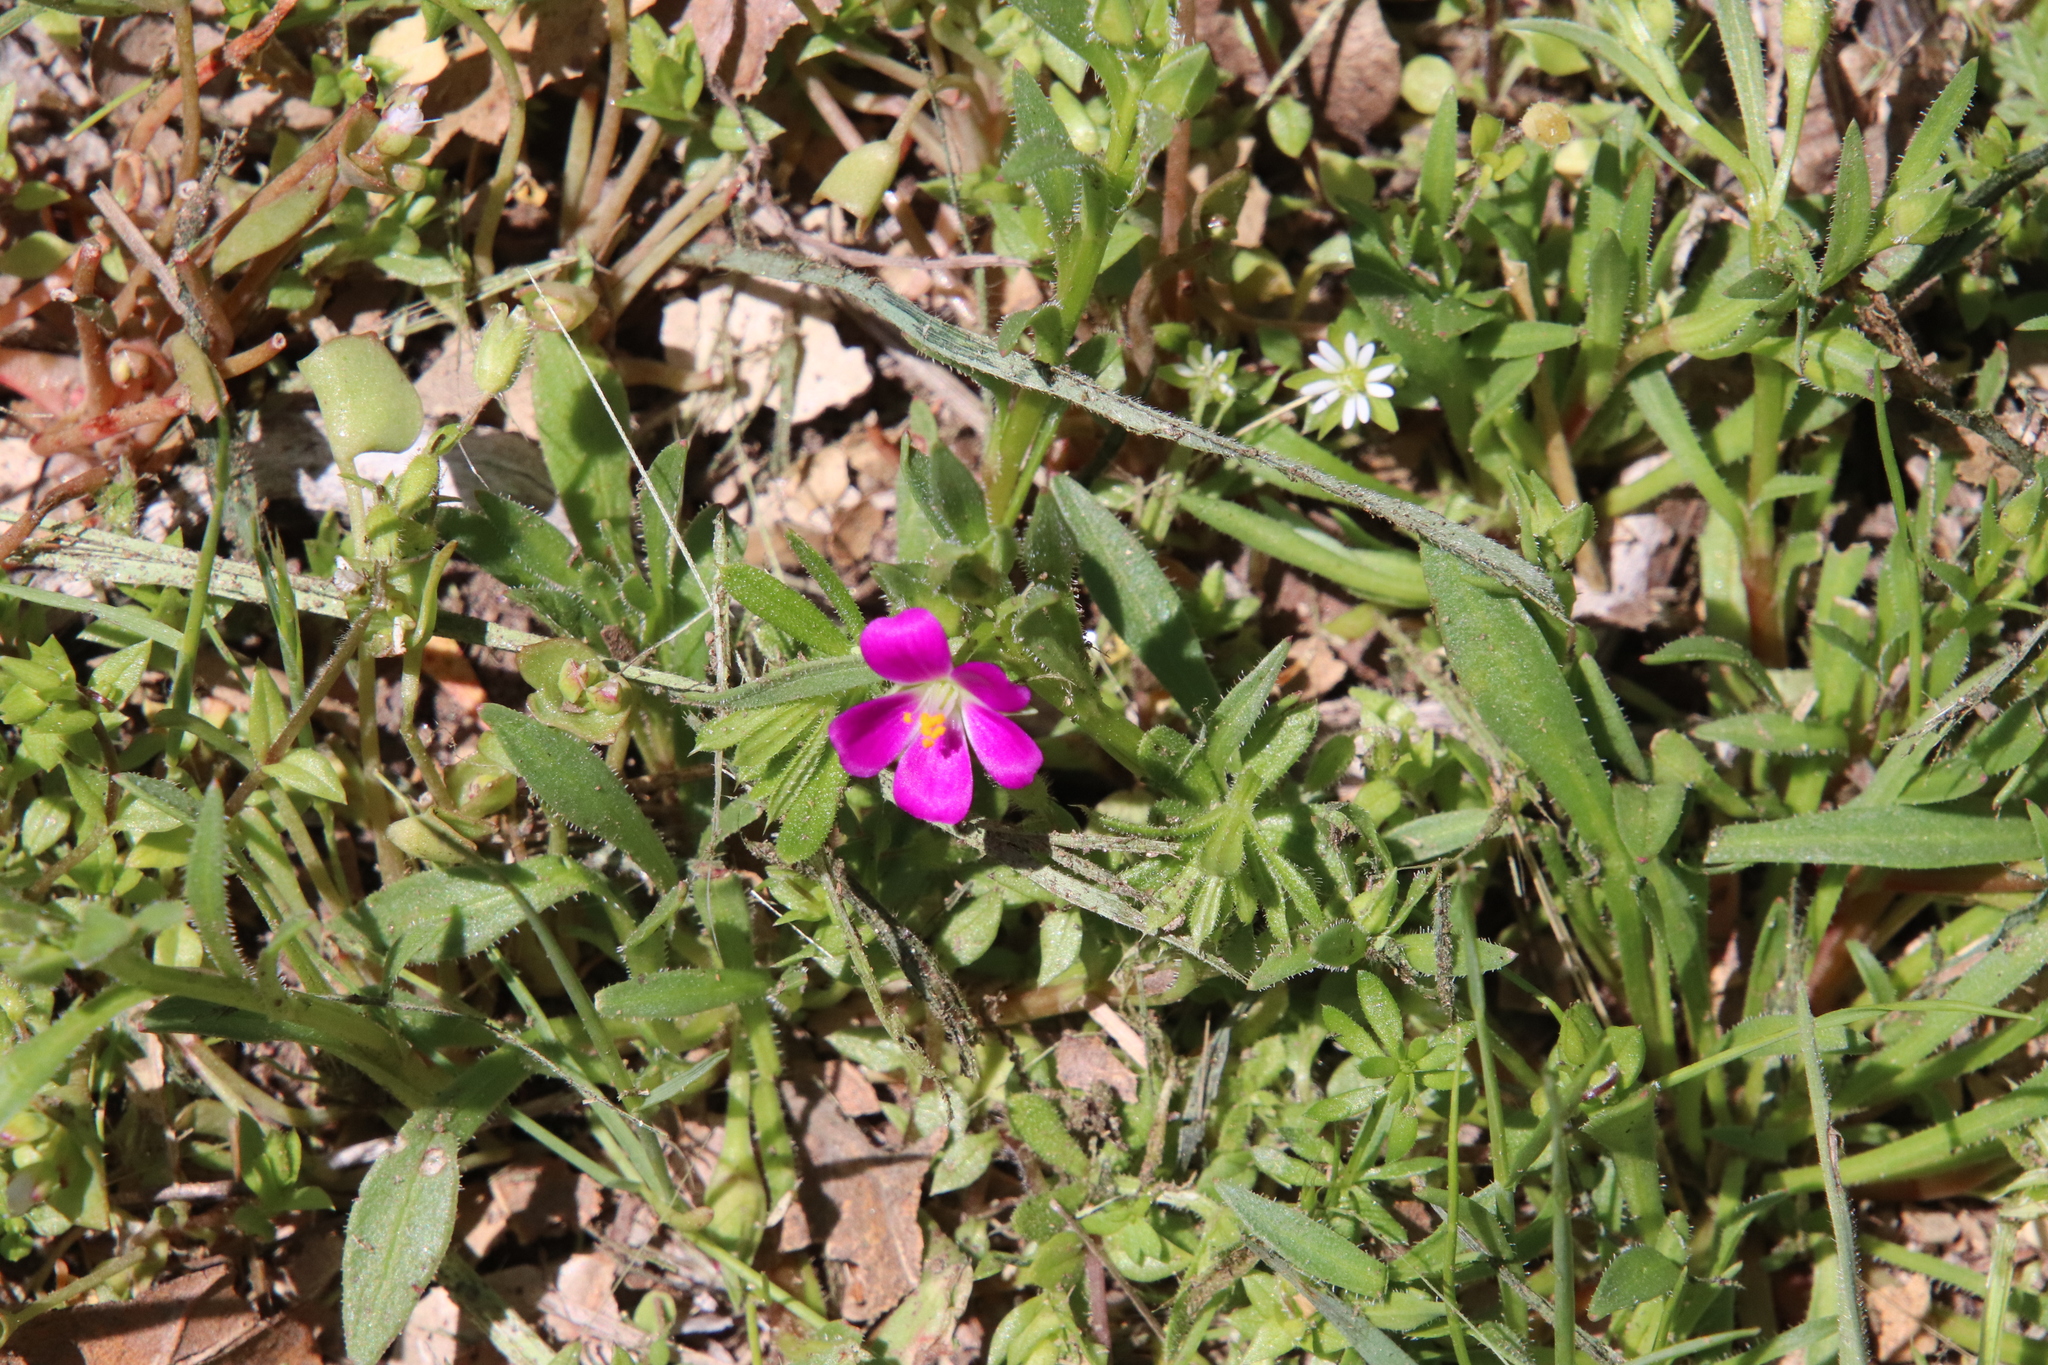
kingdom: Plantae
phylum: Tracheophyta
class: Magnoliopsida
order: Caryophyllales
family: Montiaceae
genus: Calandrinia
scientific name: Calandrinia menziesii
